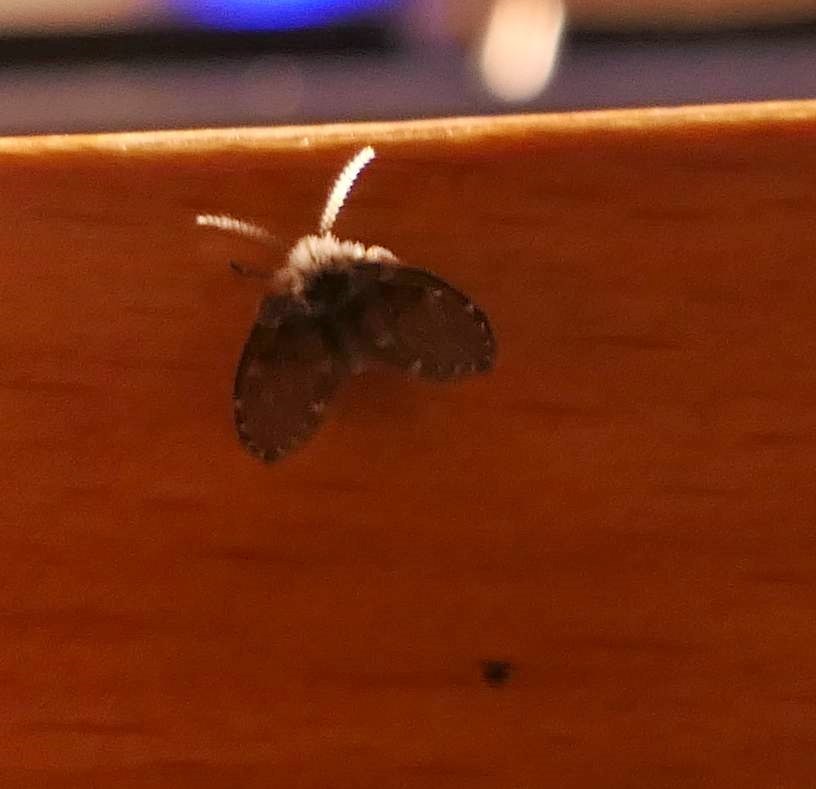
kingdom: Animalia
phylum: Arthropoda
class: Insecta
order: Diptera
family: Psychodidae
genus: Clogmia
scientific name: Clogmia albipunctatus
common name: White-spotted moth fly
